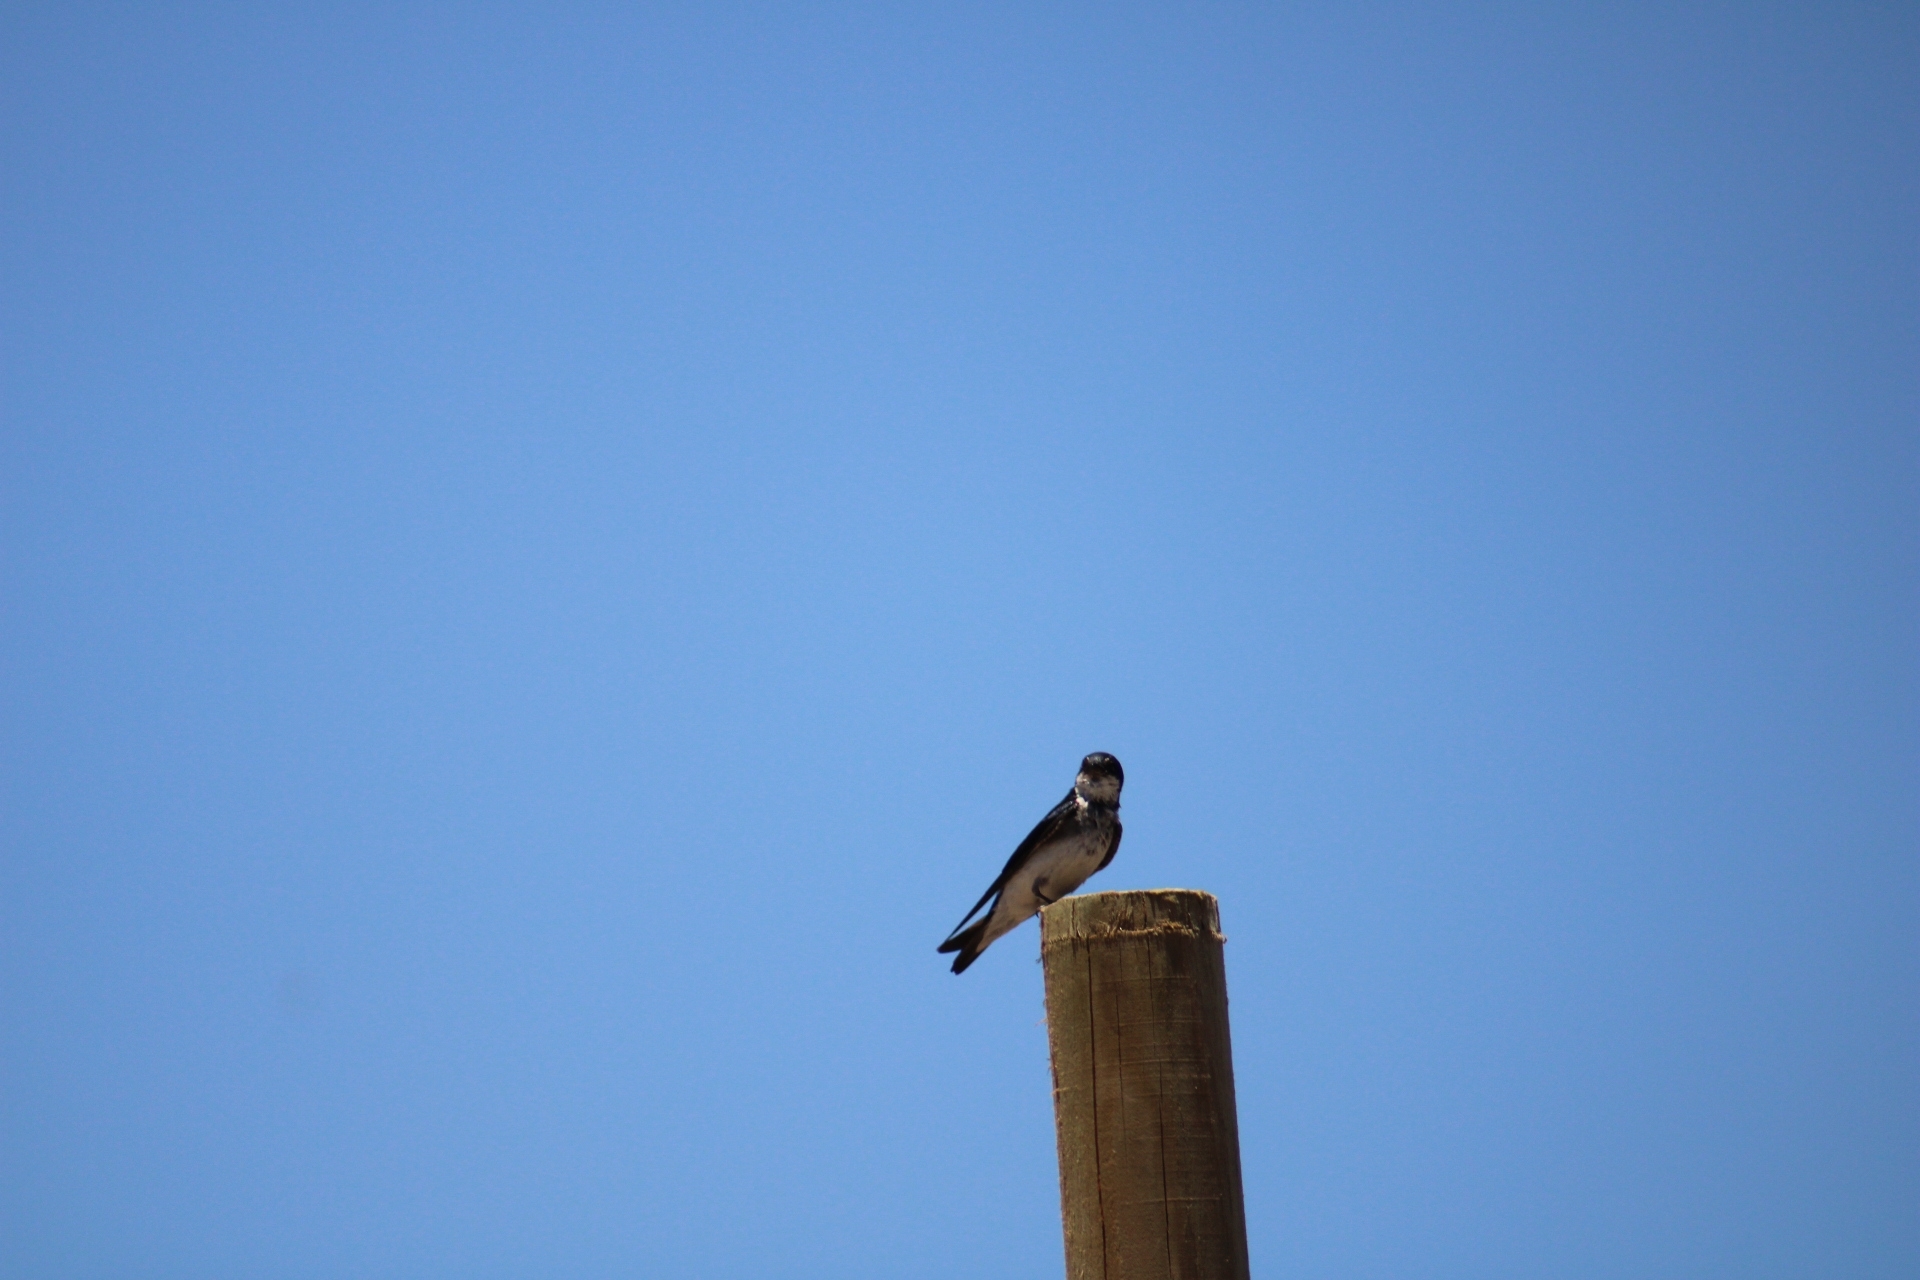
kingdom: Animalia
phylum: Chordata
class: Aves
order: Passeriformes
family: Hirundinidae
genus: Tachycineta
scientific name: Tachycineta leucopyga
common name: Chilean swallow
